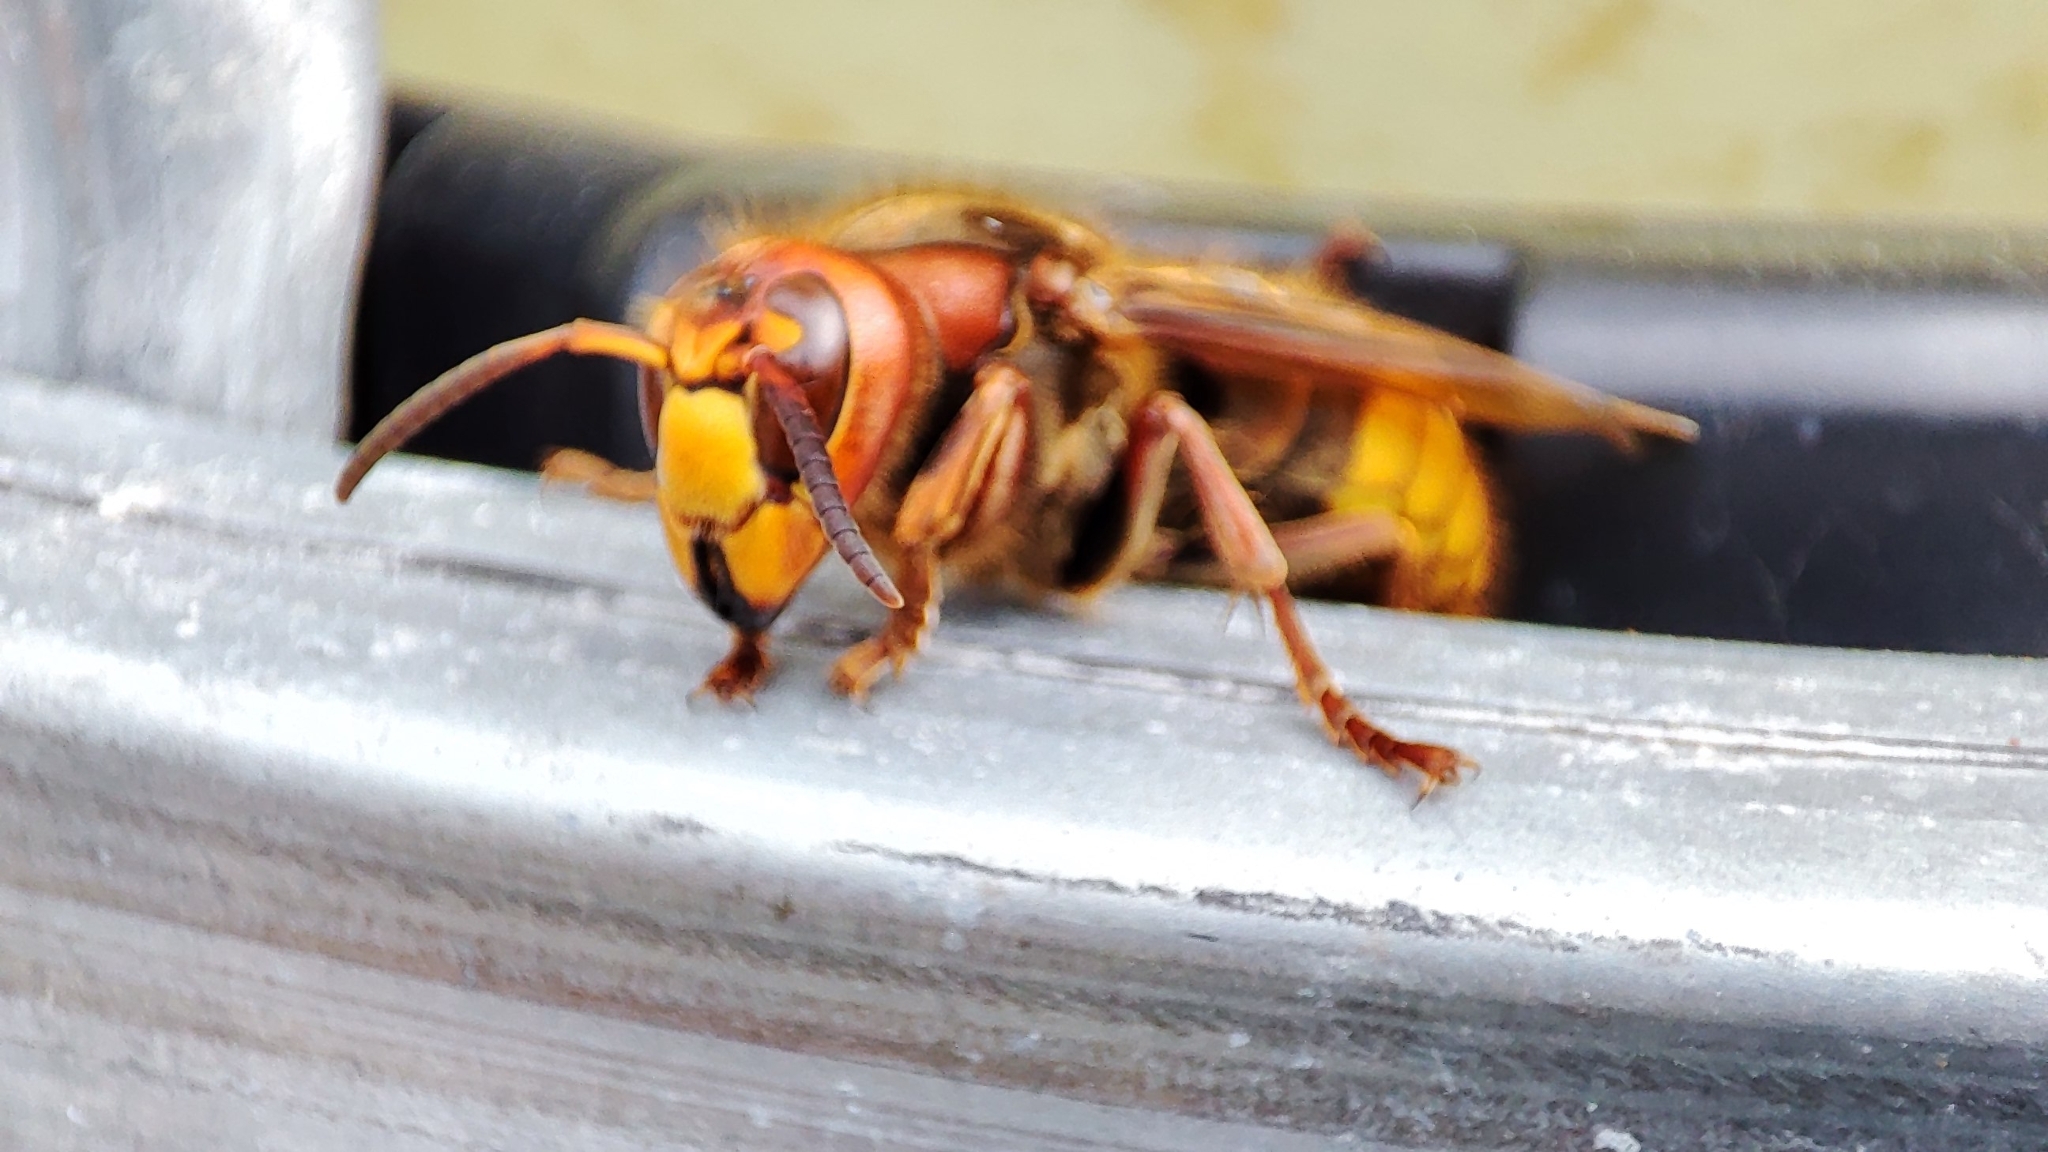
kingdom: Animalia
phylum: Arthropoda
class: Insecta
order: Hymenoptera
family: Vespidae
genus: Vespa
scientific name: Vespa crabro
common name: Hornet
